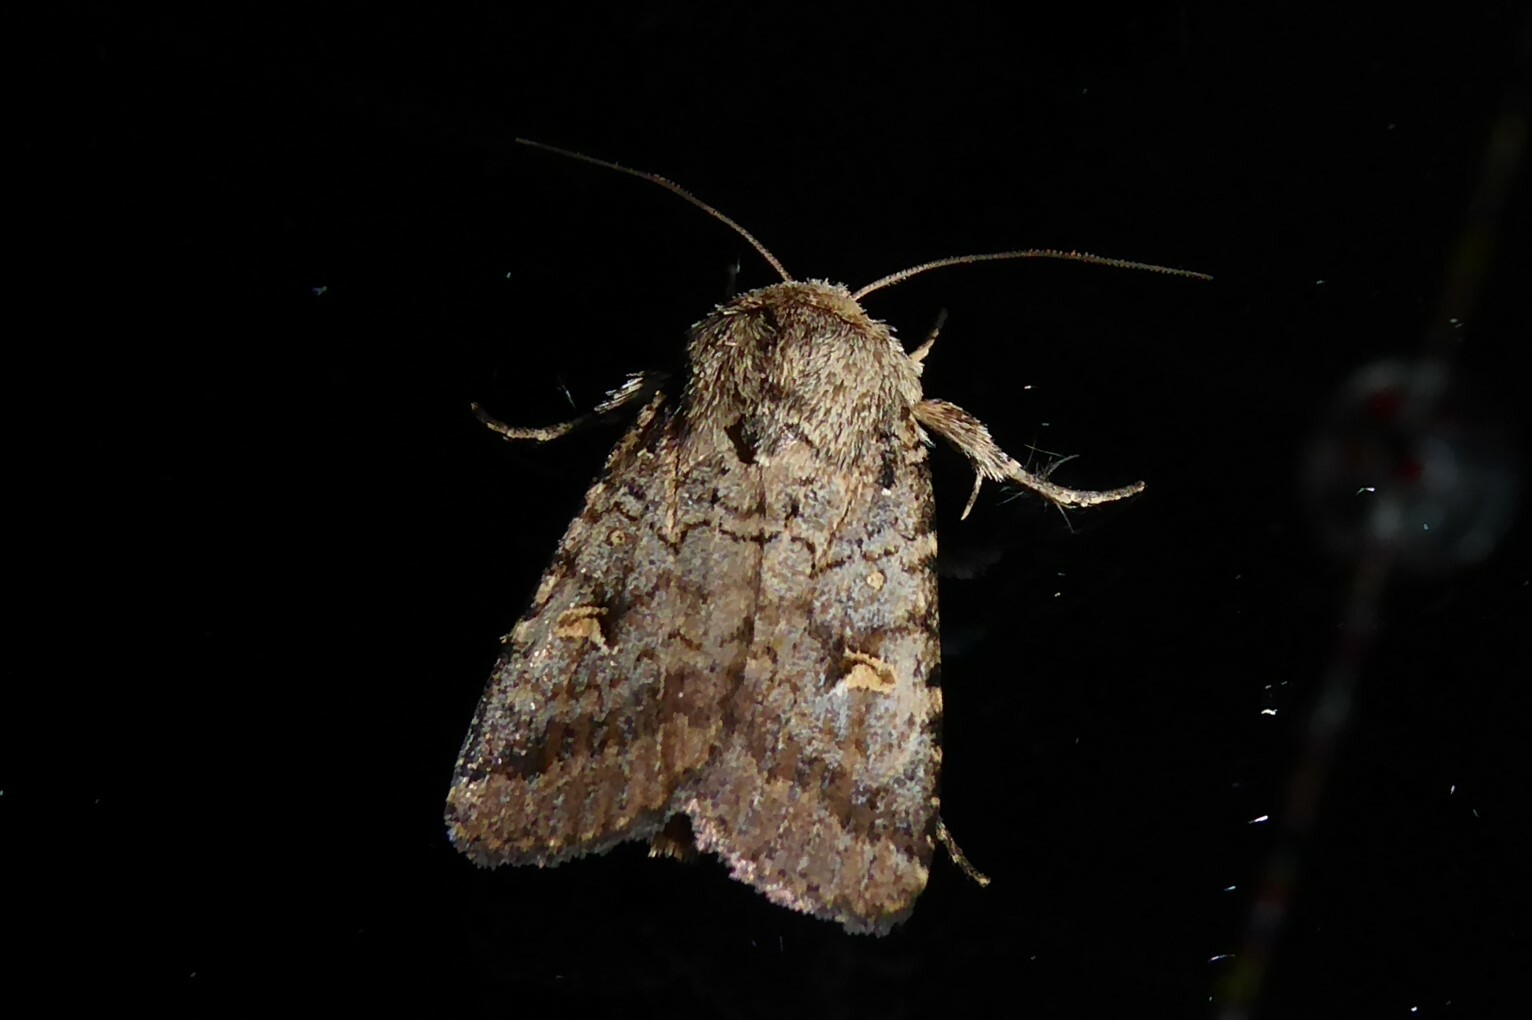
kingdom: Animalia
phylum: Arthropoda
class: Insecta
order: Lepidoptera
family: Noctuidae
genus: Proteuxoa
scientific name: Proteuxoa tetronycha
